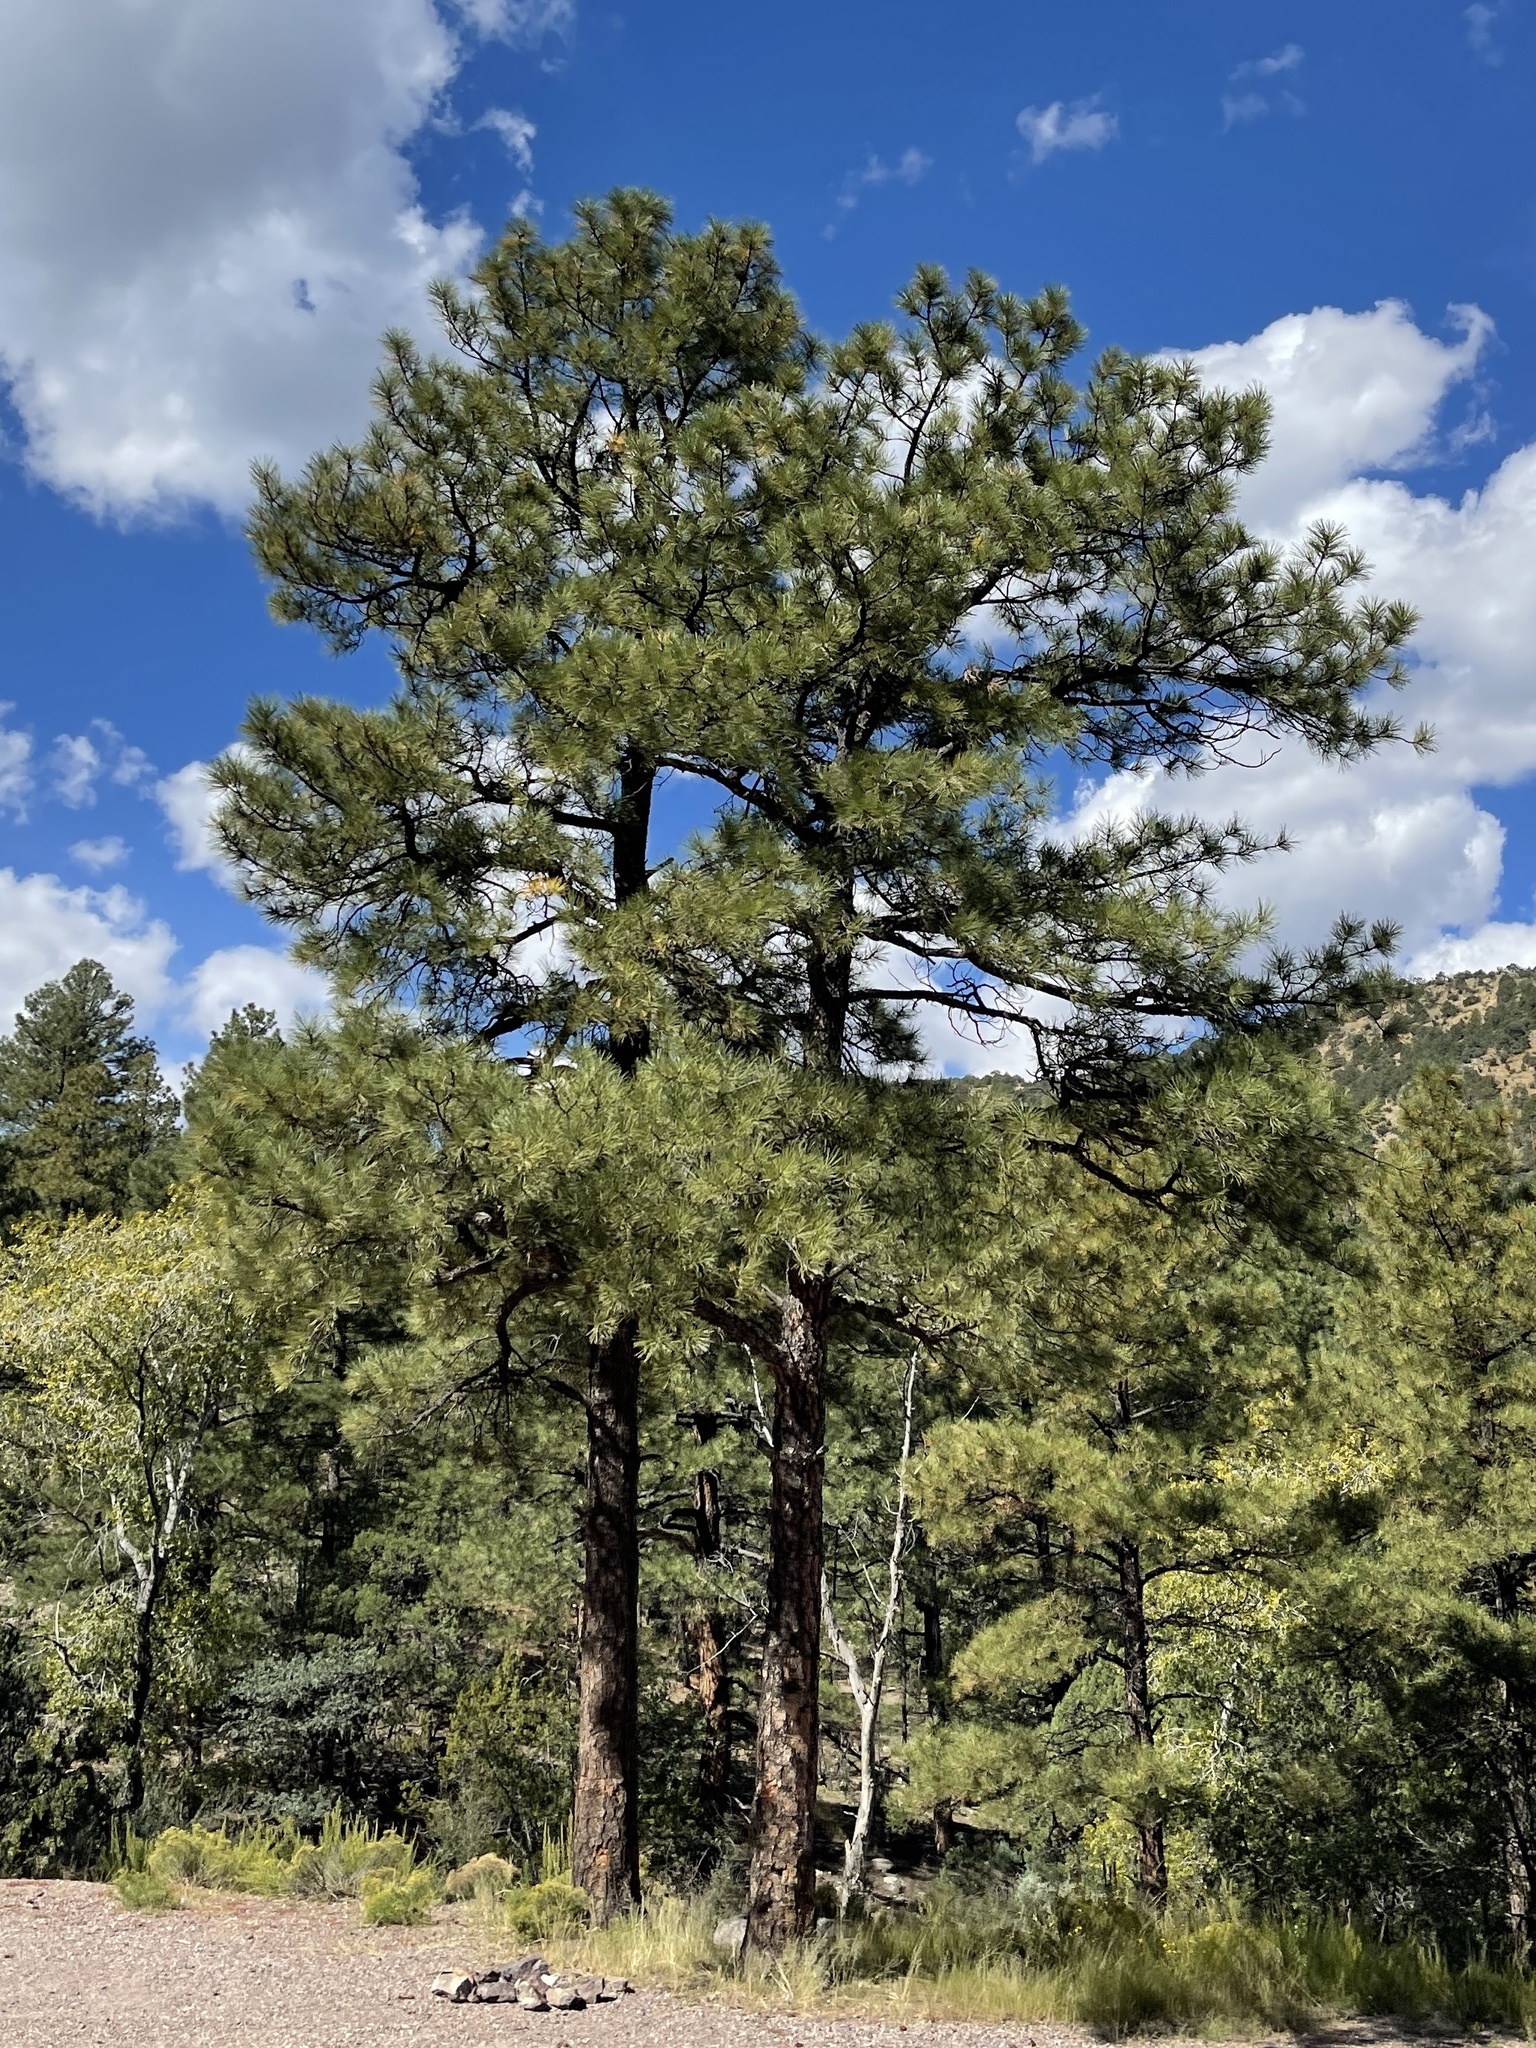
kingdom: Plantae
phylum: Tracheophyta
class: Pinopsida
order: Pinales
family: Pinaceae
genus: Pinus
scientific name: Pinus ponderosa
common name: Western yellow-pine
